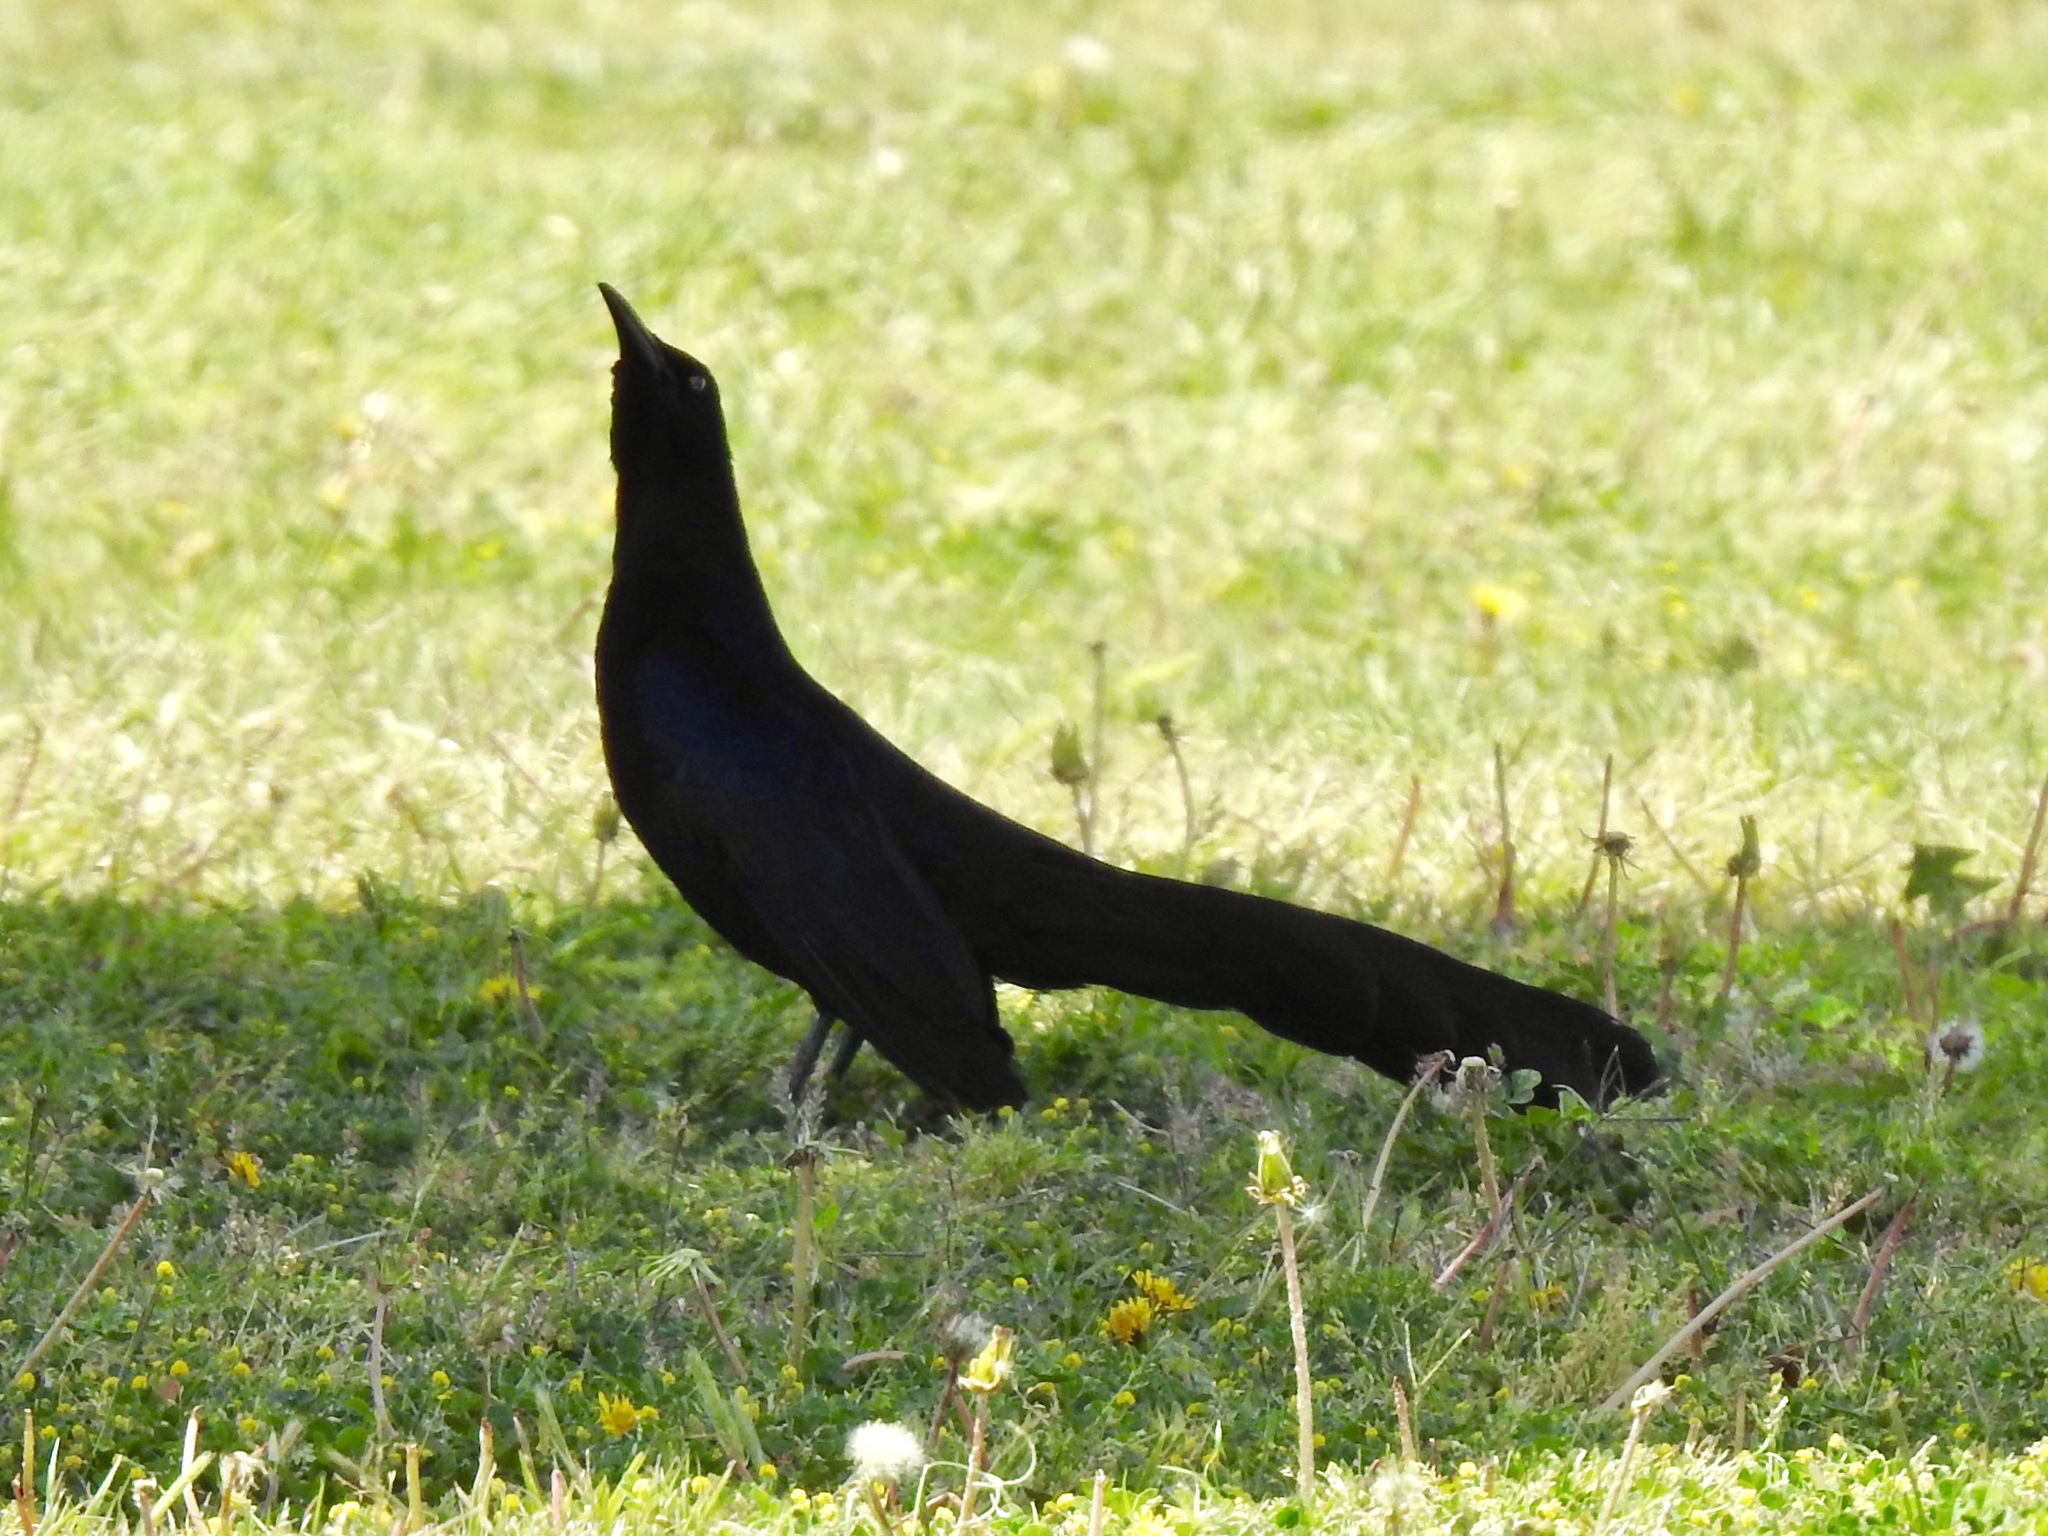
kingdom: Animalia
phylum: Chordata
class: Aves
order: Passeriformes
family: Icteridae
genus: Quiscalus
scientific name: Quiscalus mexicanus
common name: Great-tailed grackle
